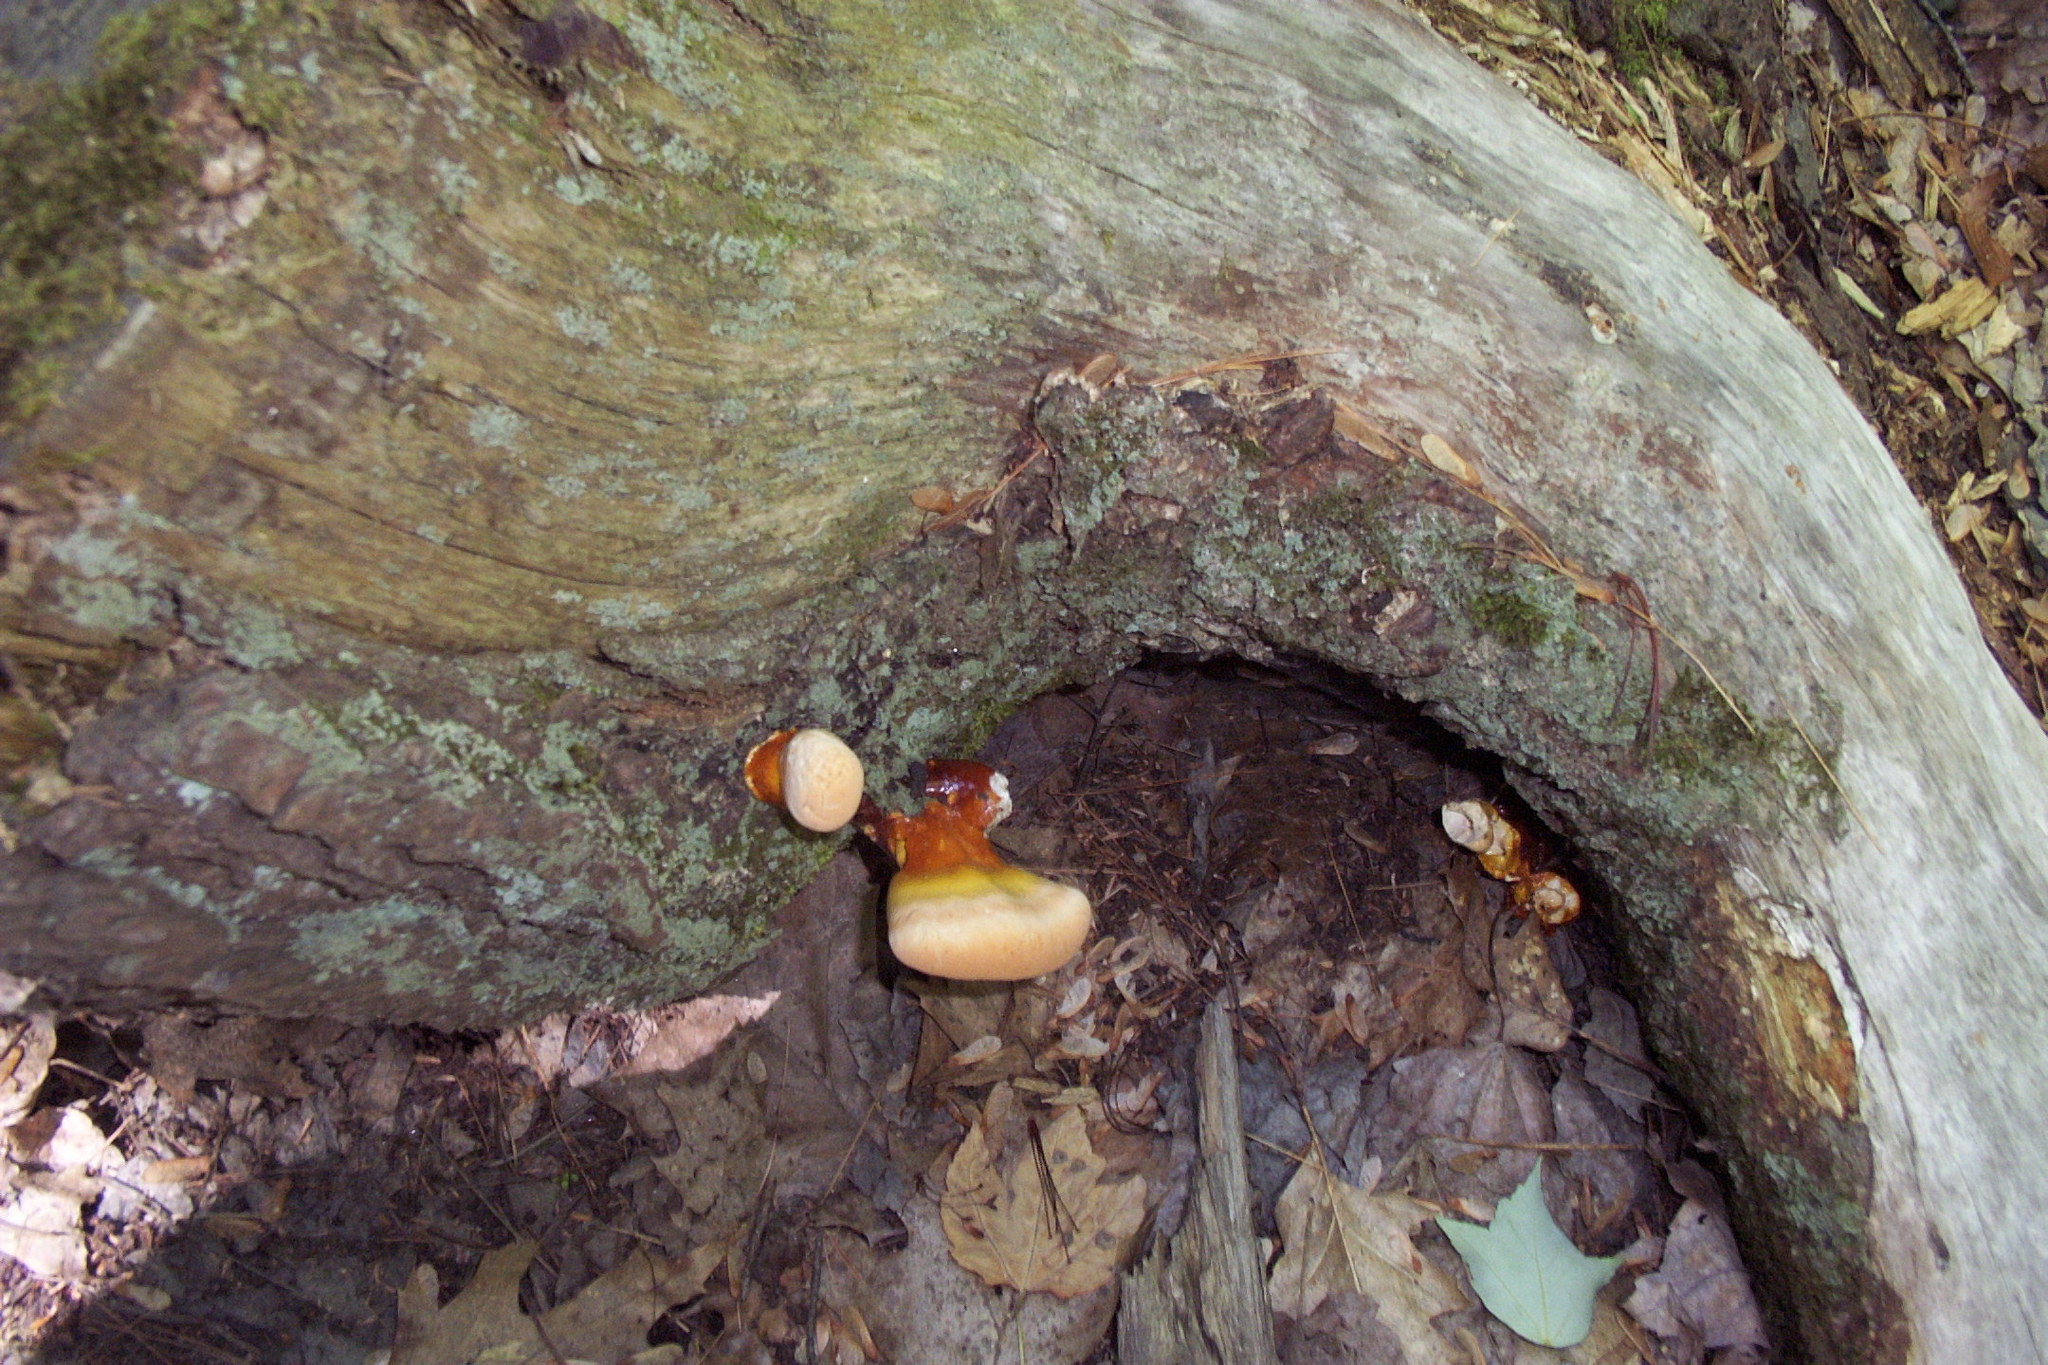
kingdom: Fungi
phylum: Basidiomycota
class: Agaricomycetes
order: Polyporales
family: Polyporaceae
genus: Ganoderma
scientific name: Ganoderma tsugae
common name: Hemlock varnish shelf
